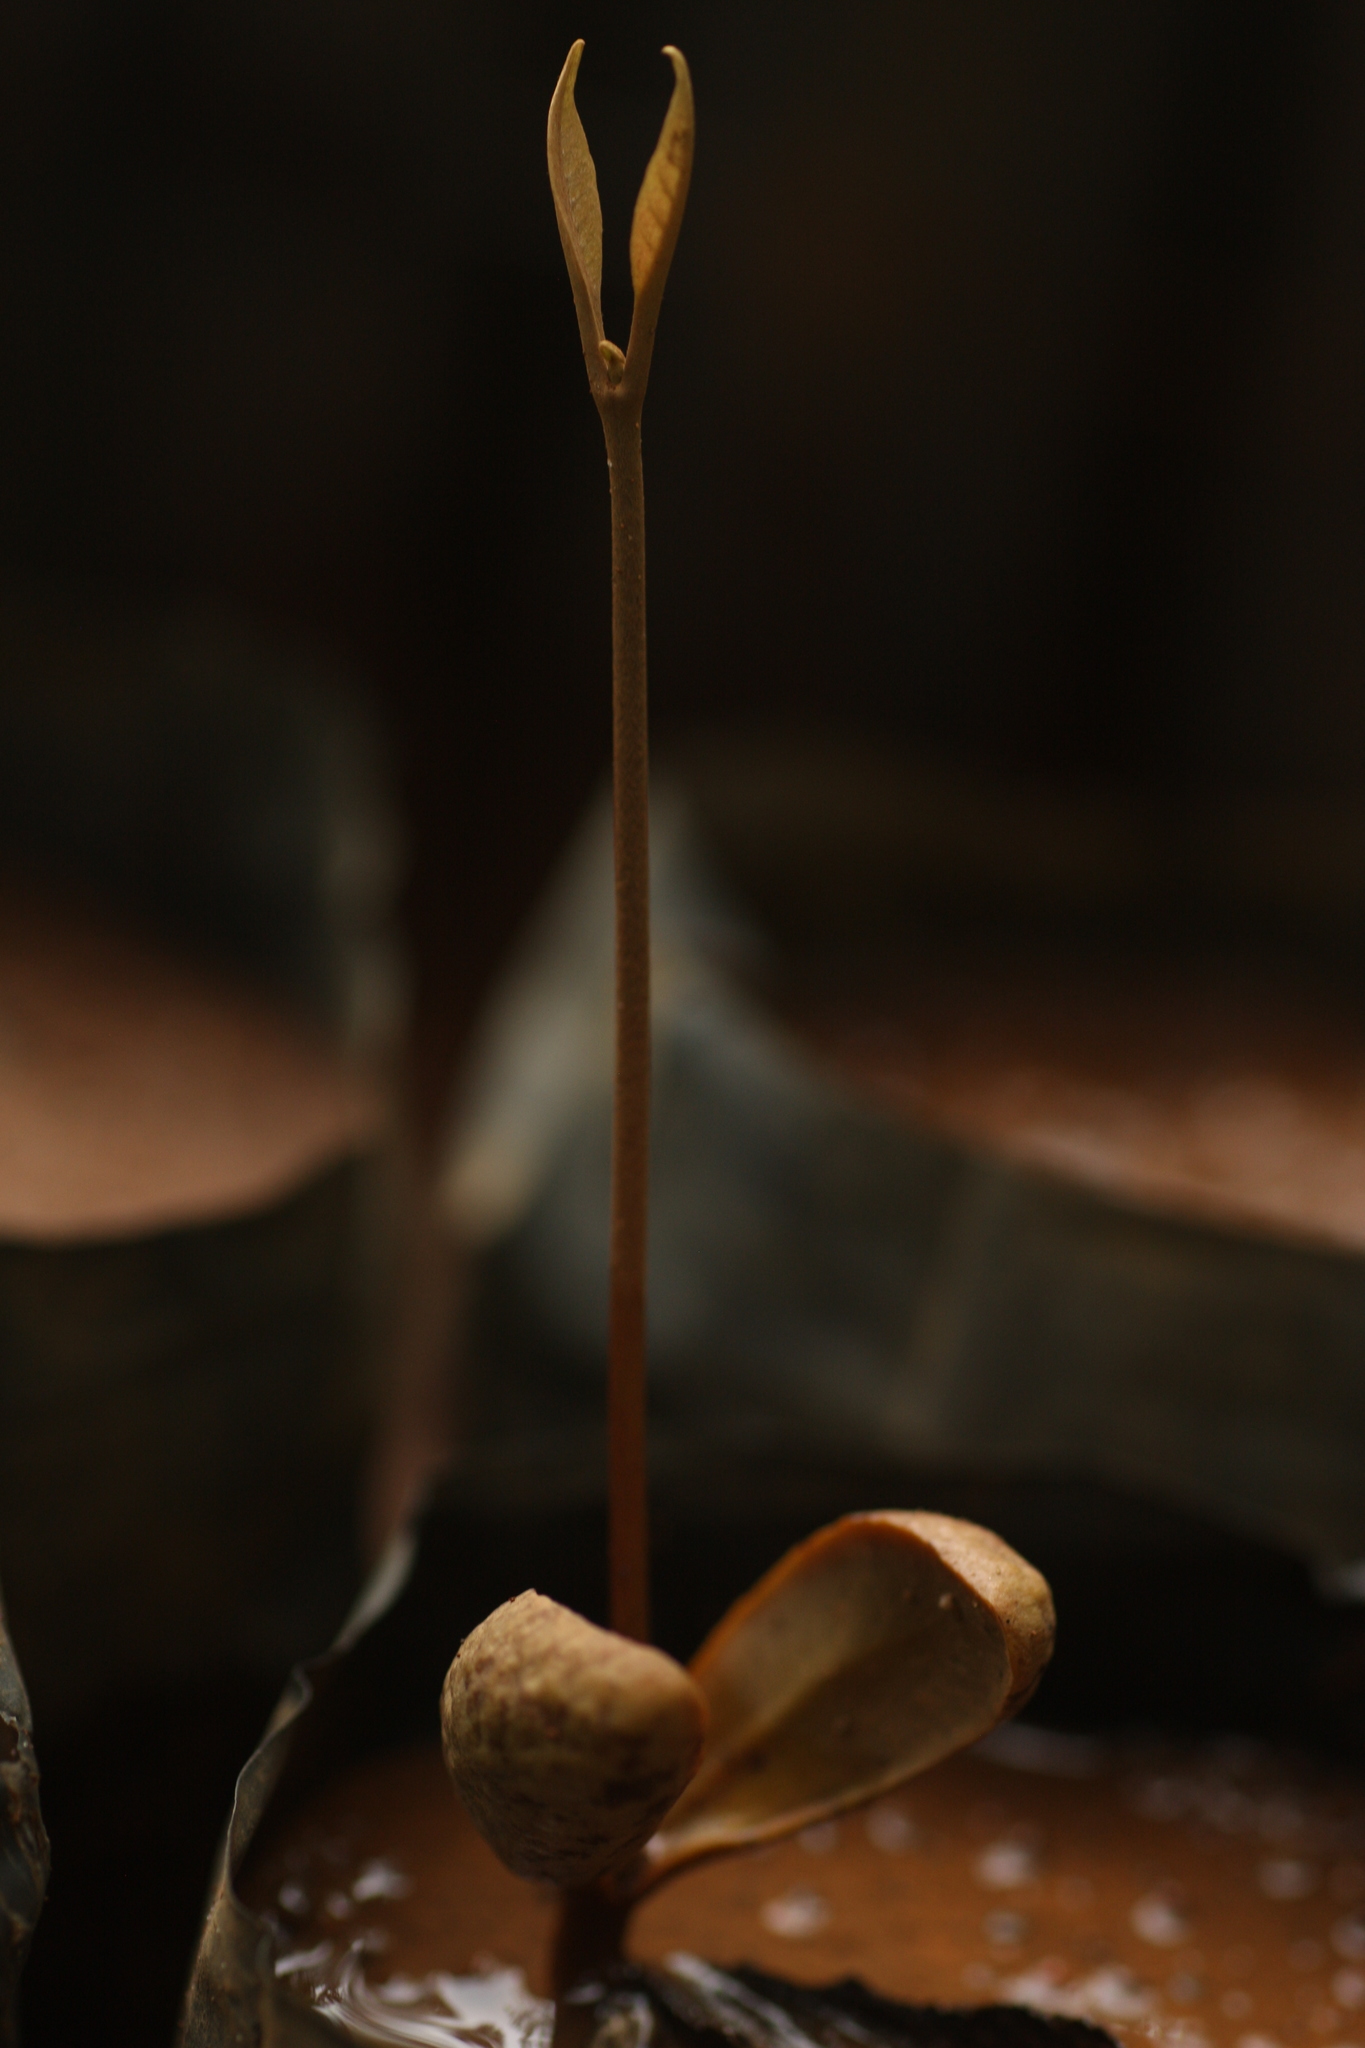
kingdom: Plantae
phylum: Tracheophyta
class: Magnoliopsida
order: Ericales
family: Sapotaceae
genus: Palaquium
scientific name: Palaquium ellipticum
